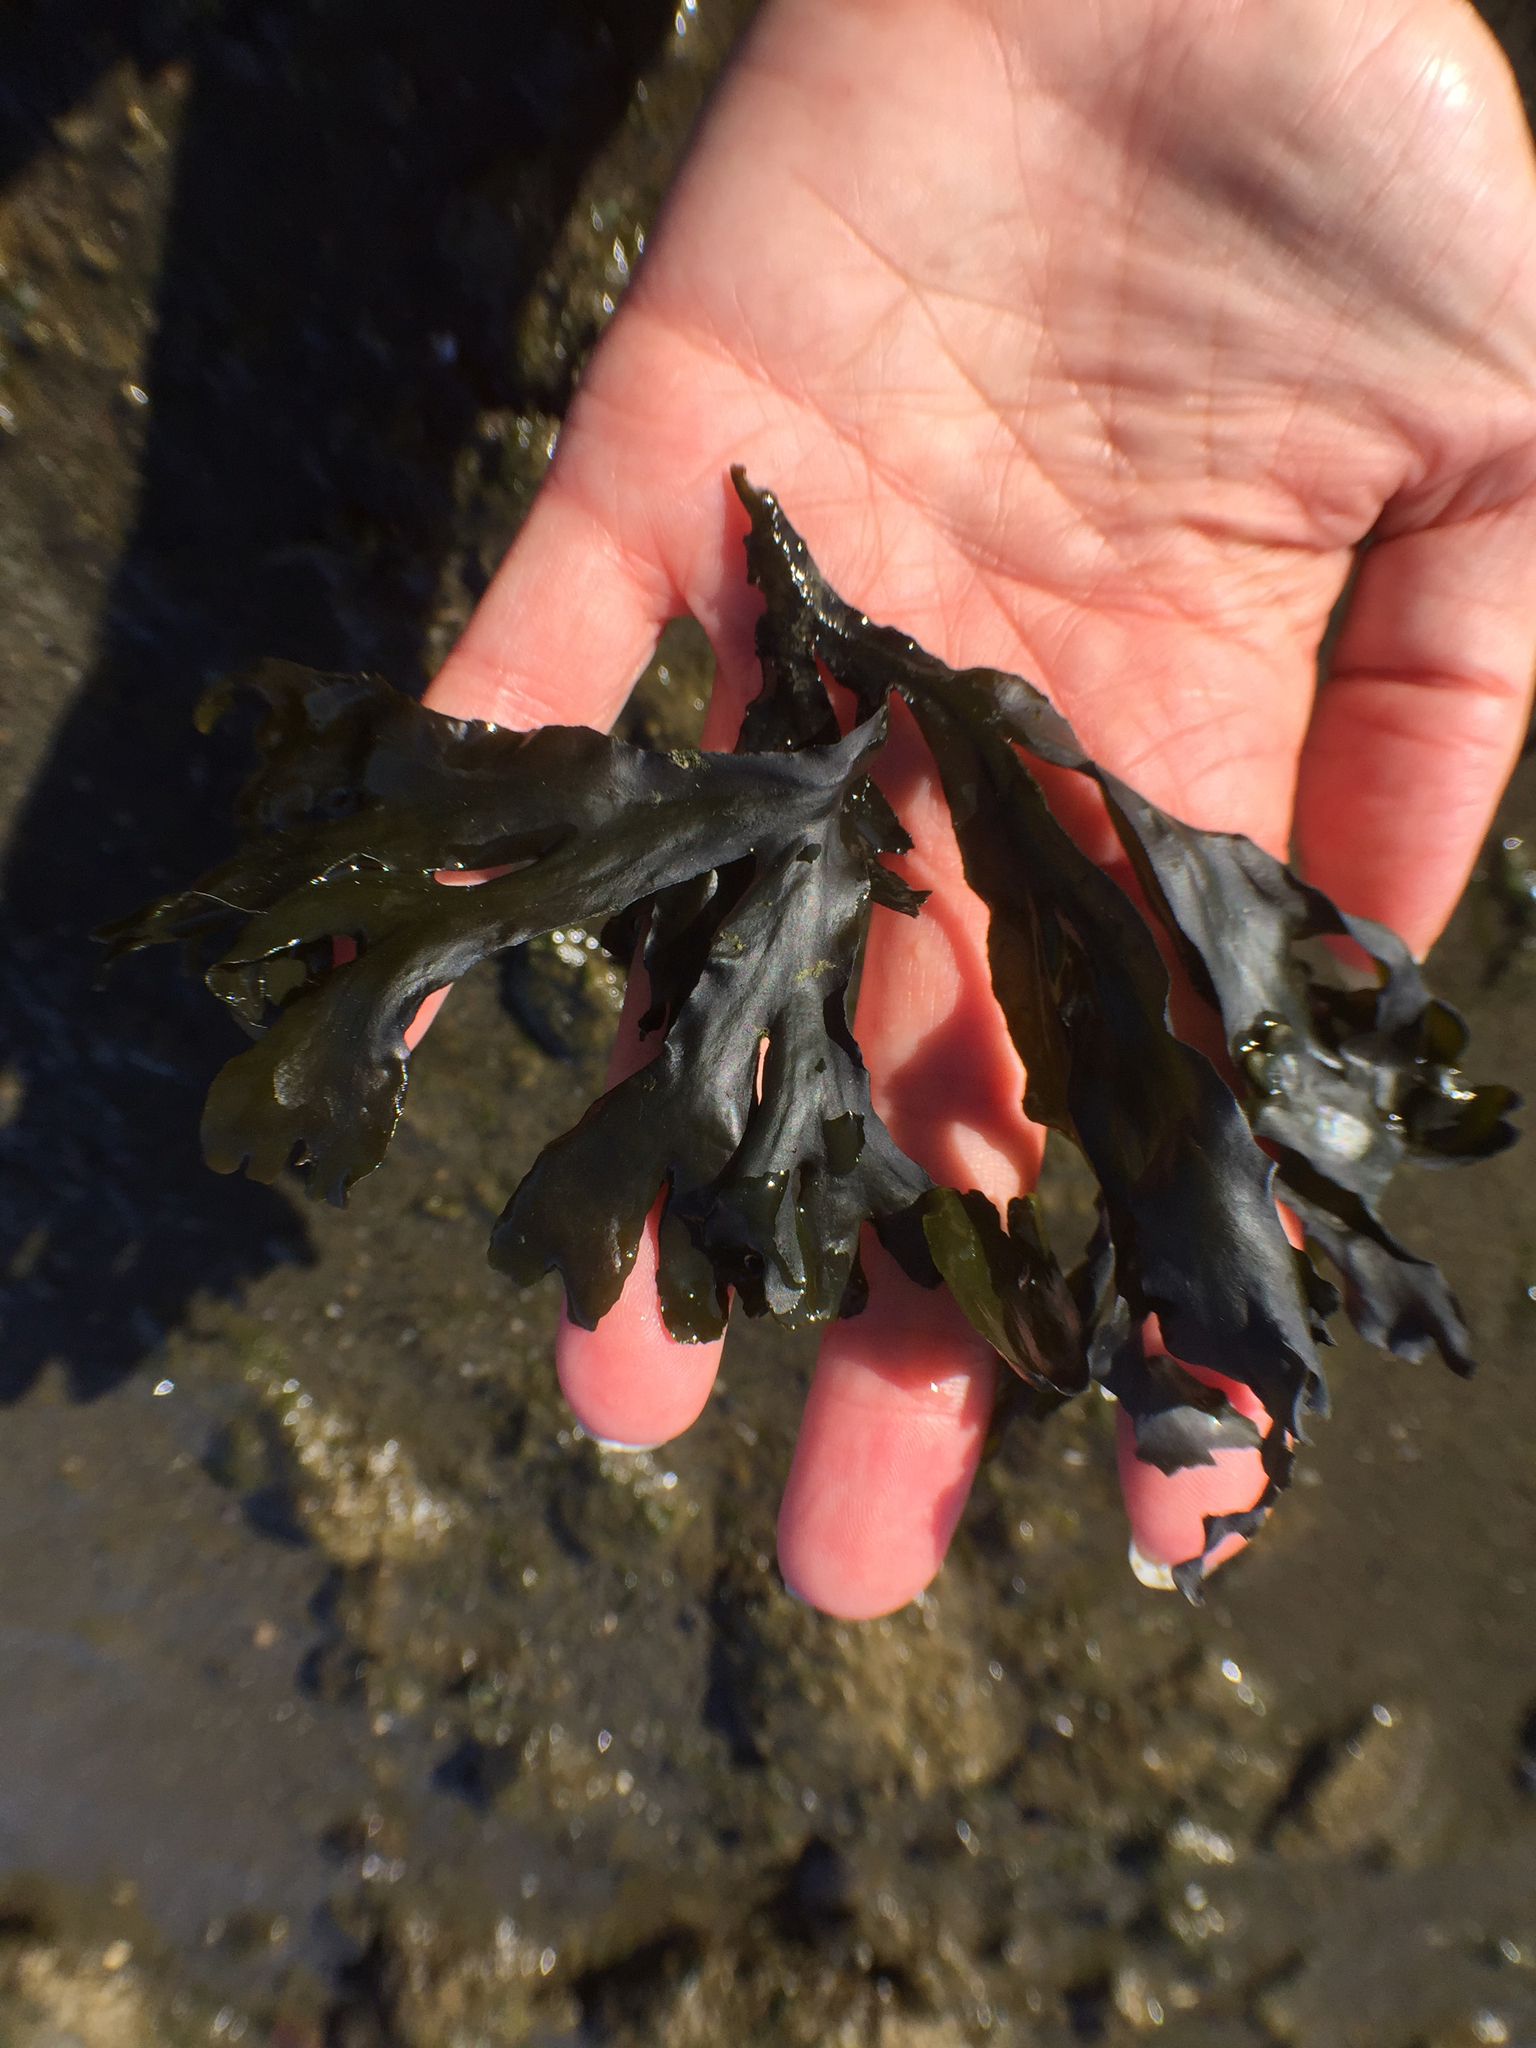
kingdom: Chromista
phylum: Ochrophyta
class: Phaeophyceae
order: Fucales
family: Fucaceae
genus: Fucus
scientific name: Fucus distichus
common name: Rockweed
